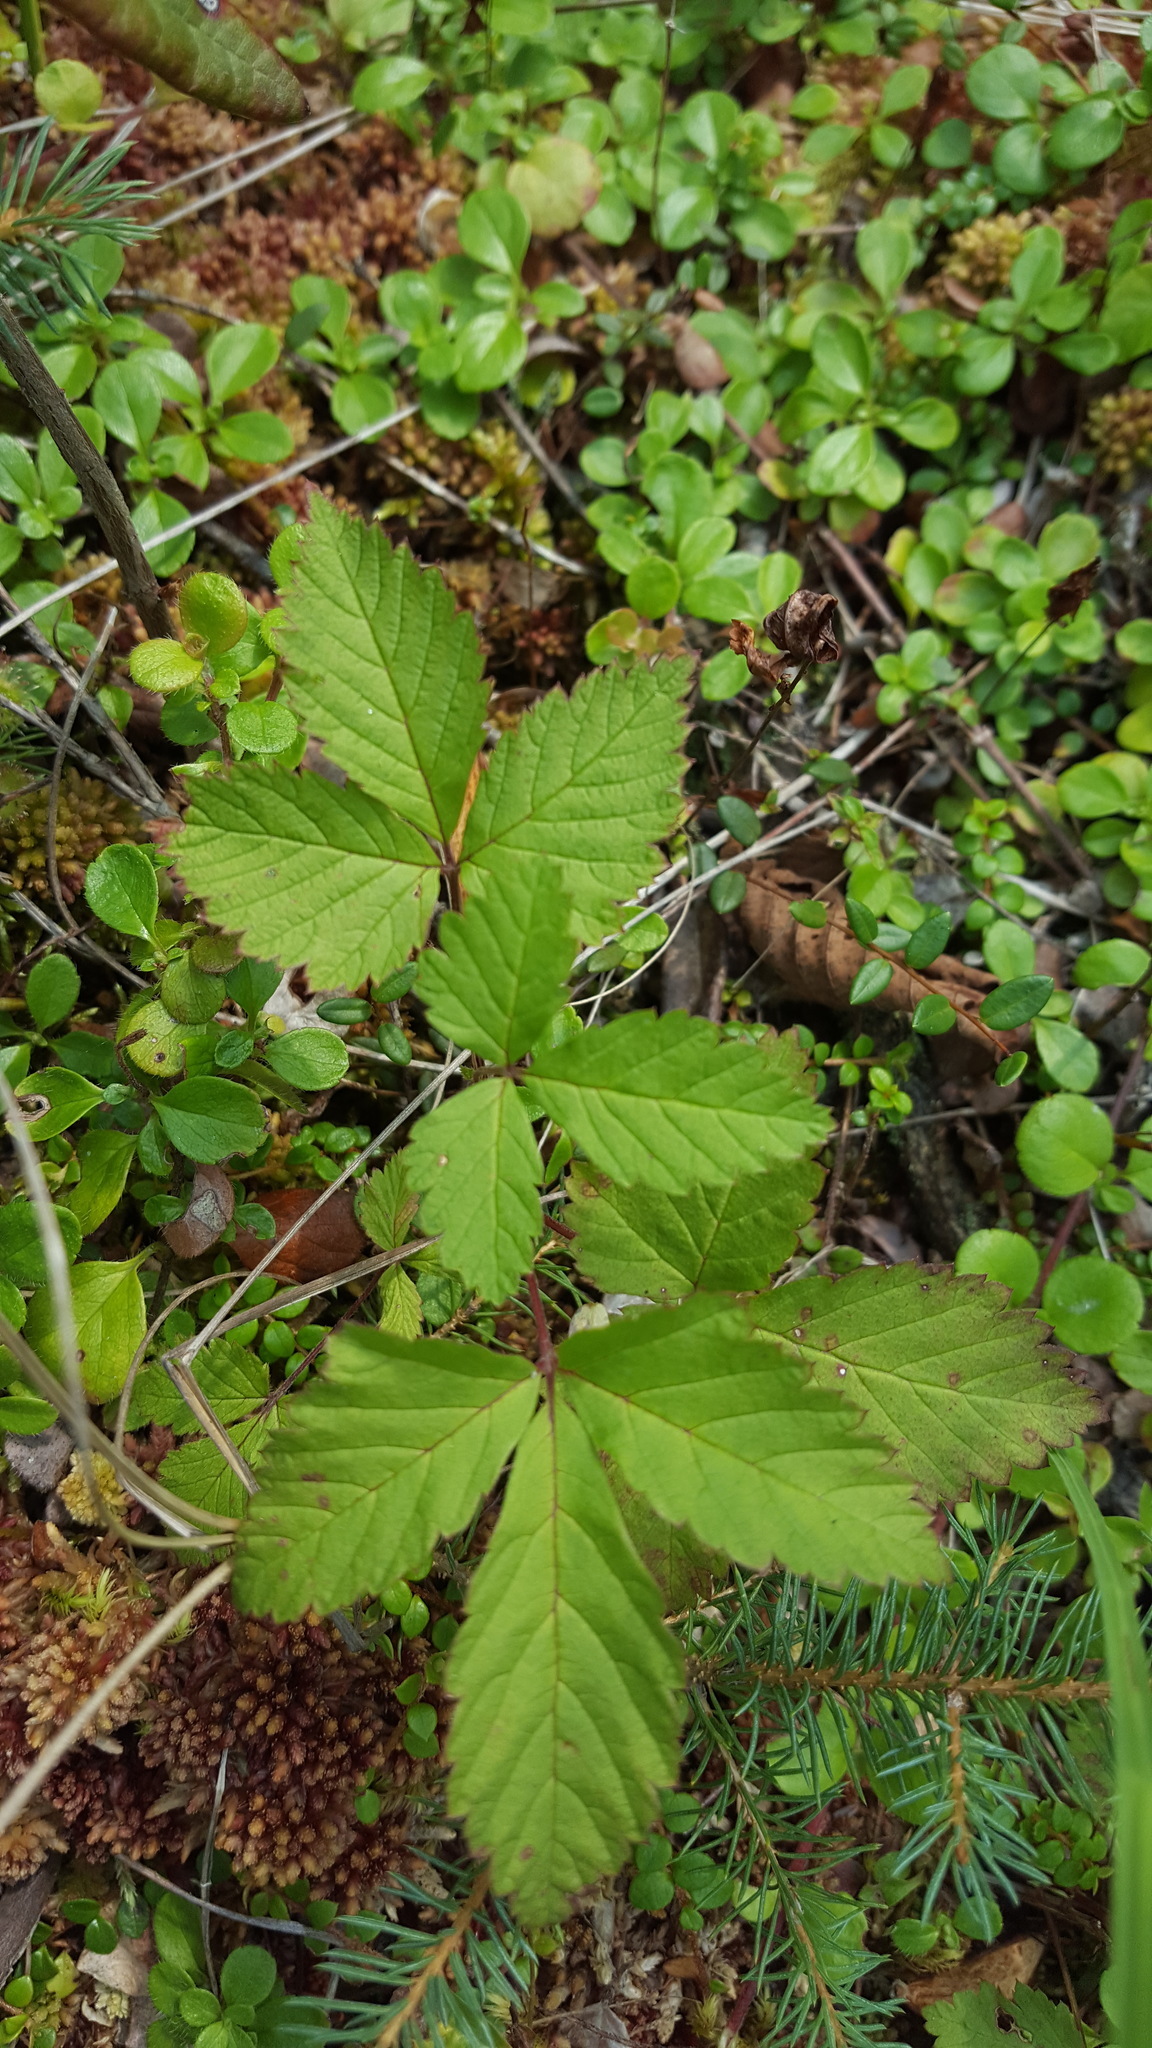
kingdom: Plantae
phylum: Tracheophyta
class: Magnoliopsida
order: Rosales
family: Rosaceae
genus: Rubus
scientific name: Rubus arcticus
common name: Arctic bramble
